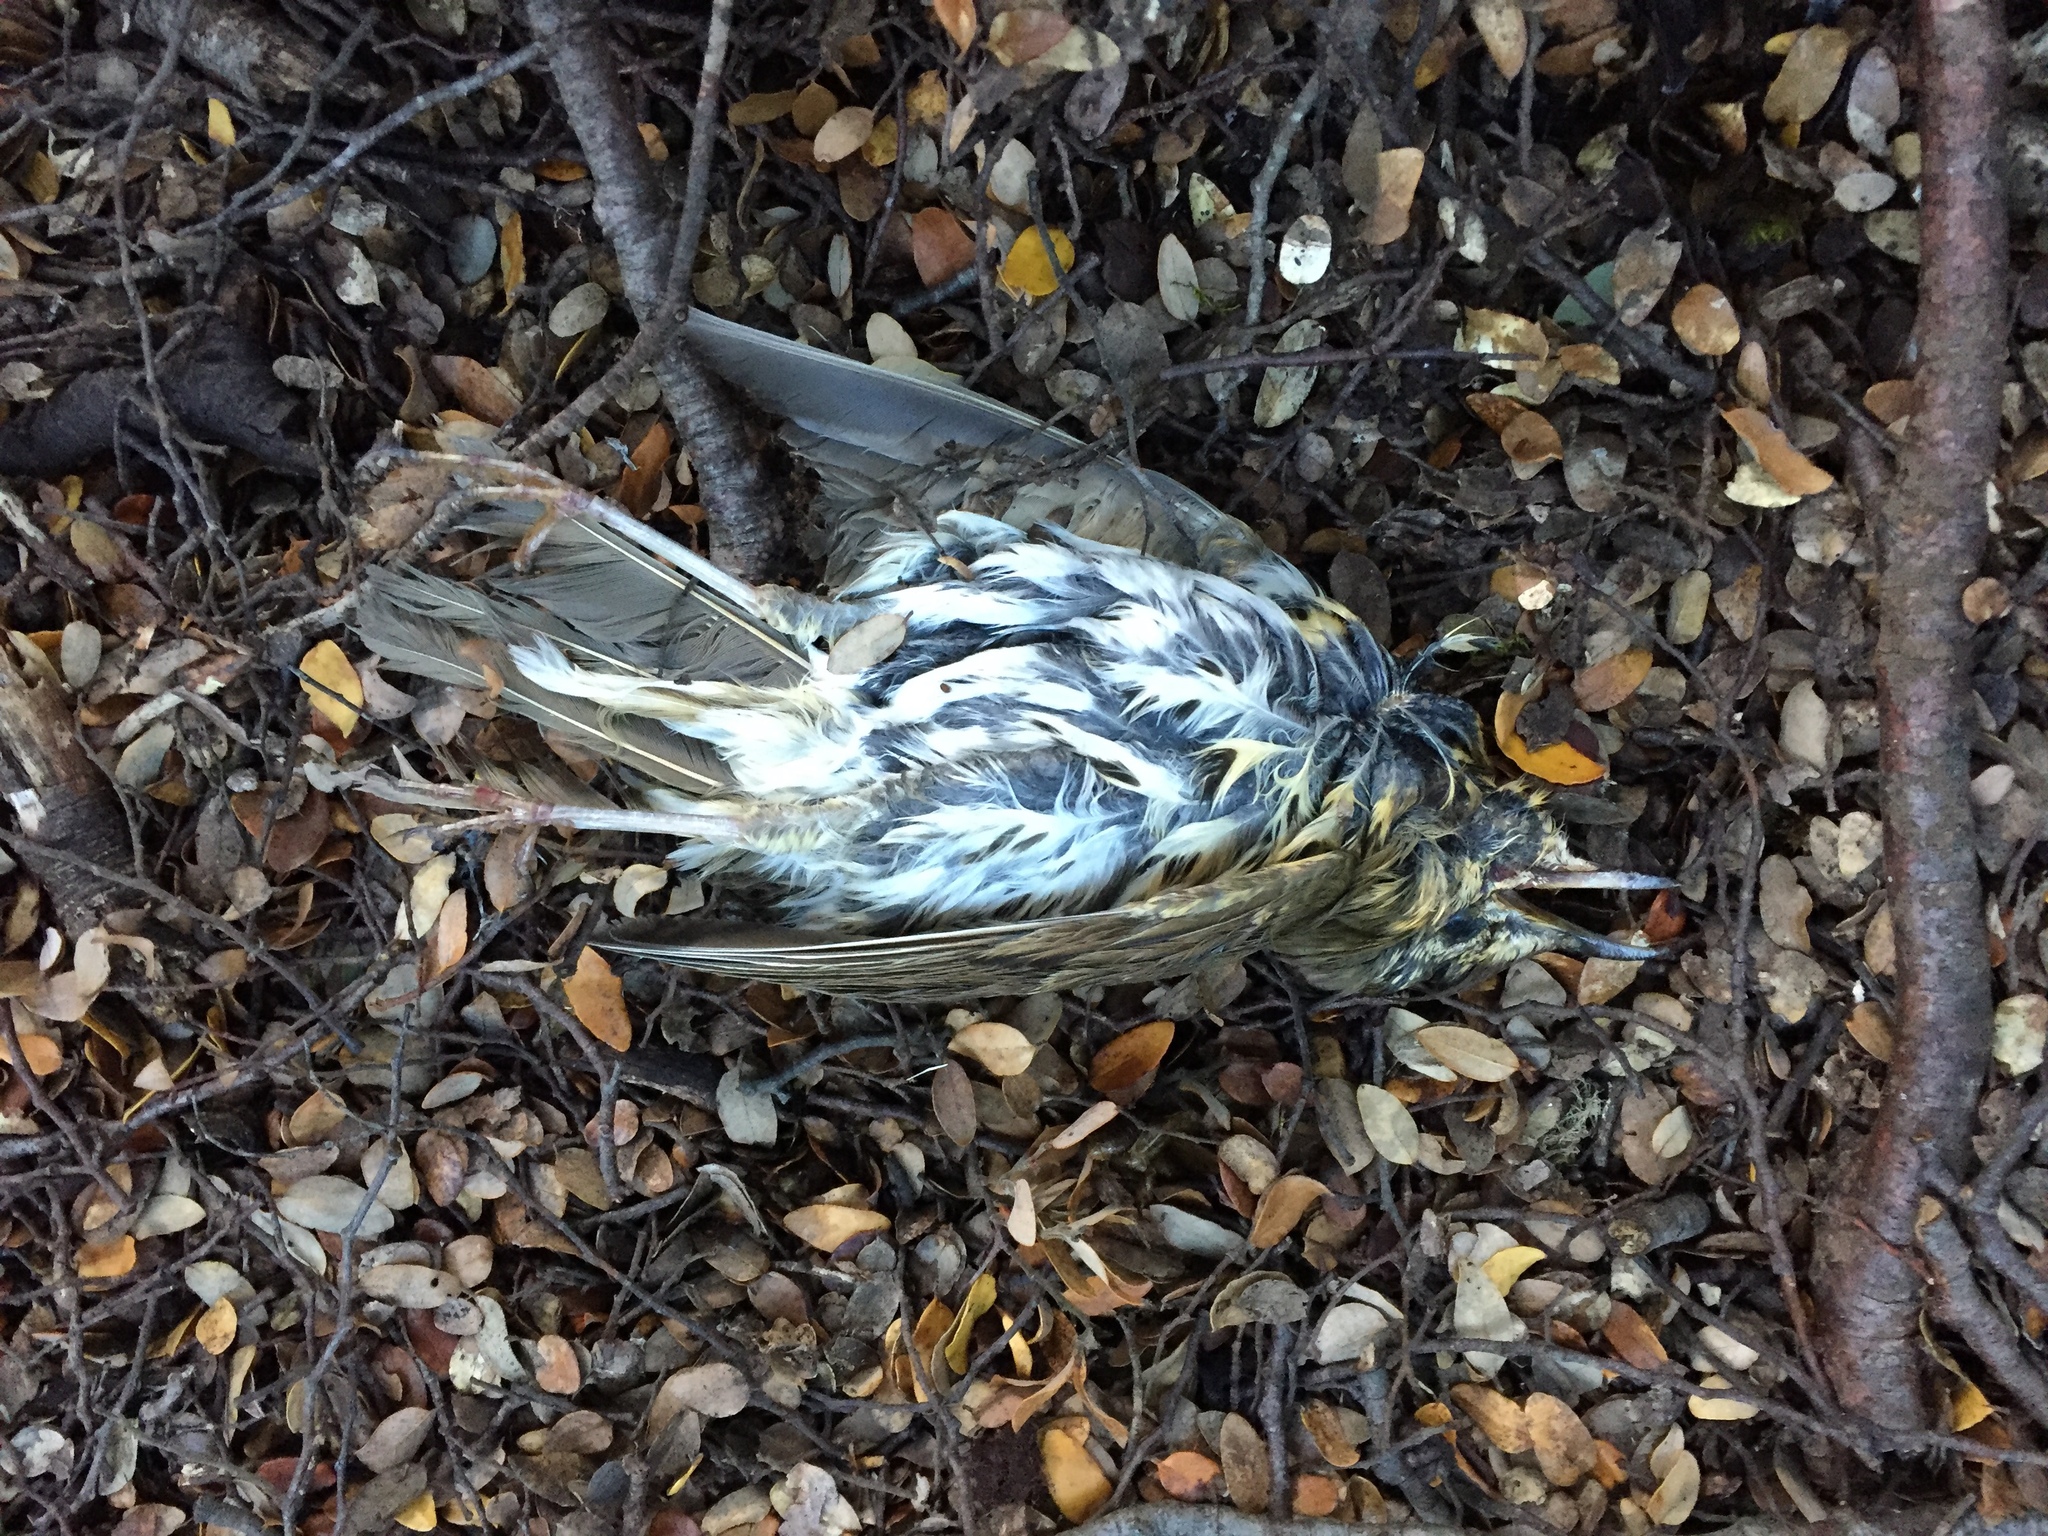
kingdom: Animalia
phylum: Chordata
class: Aves
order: Passeriformes
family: Turdidae
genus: Turdus
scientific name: Turdus philomelos
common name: Song thrush
